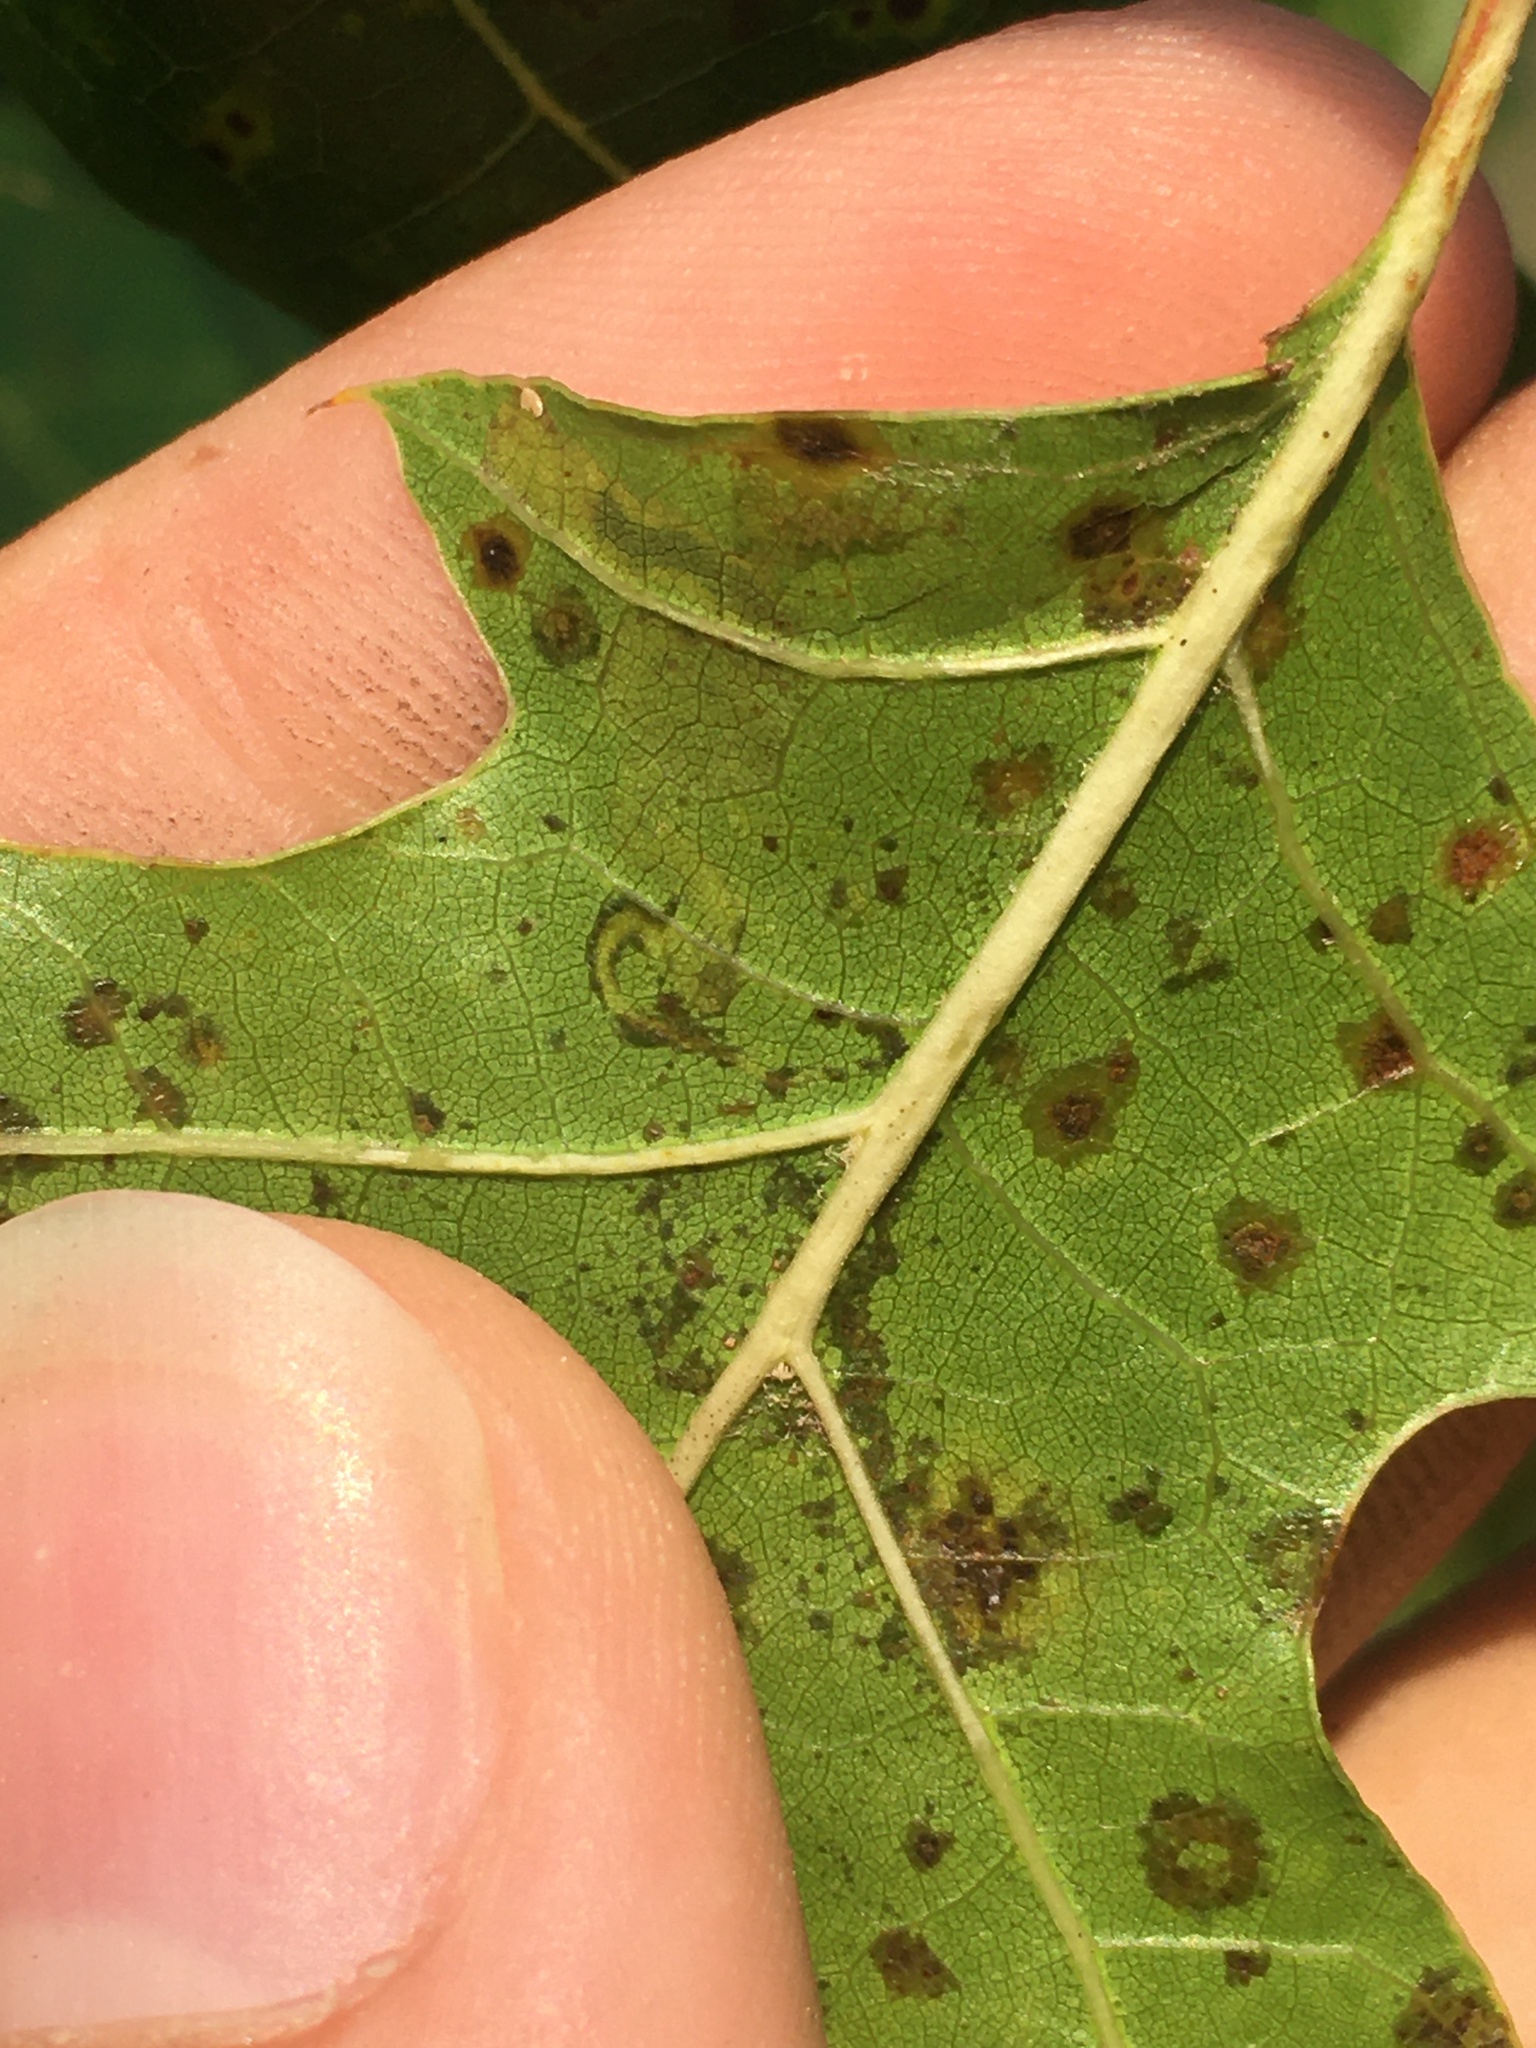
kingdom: Animalia
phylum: Arthropoda
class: Insecta
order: Lepidoptera
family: Nepticulidae
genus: Stigmella
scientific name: Stigmella nigriverticella
